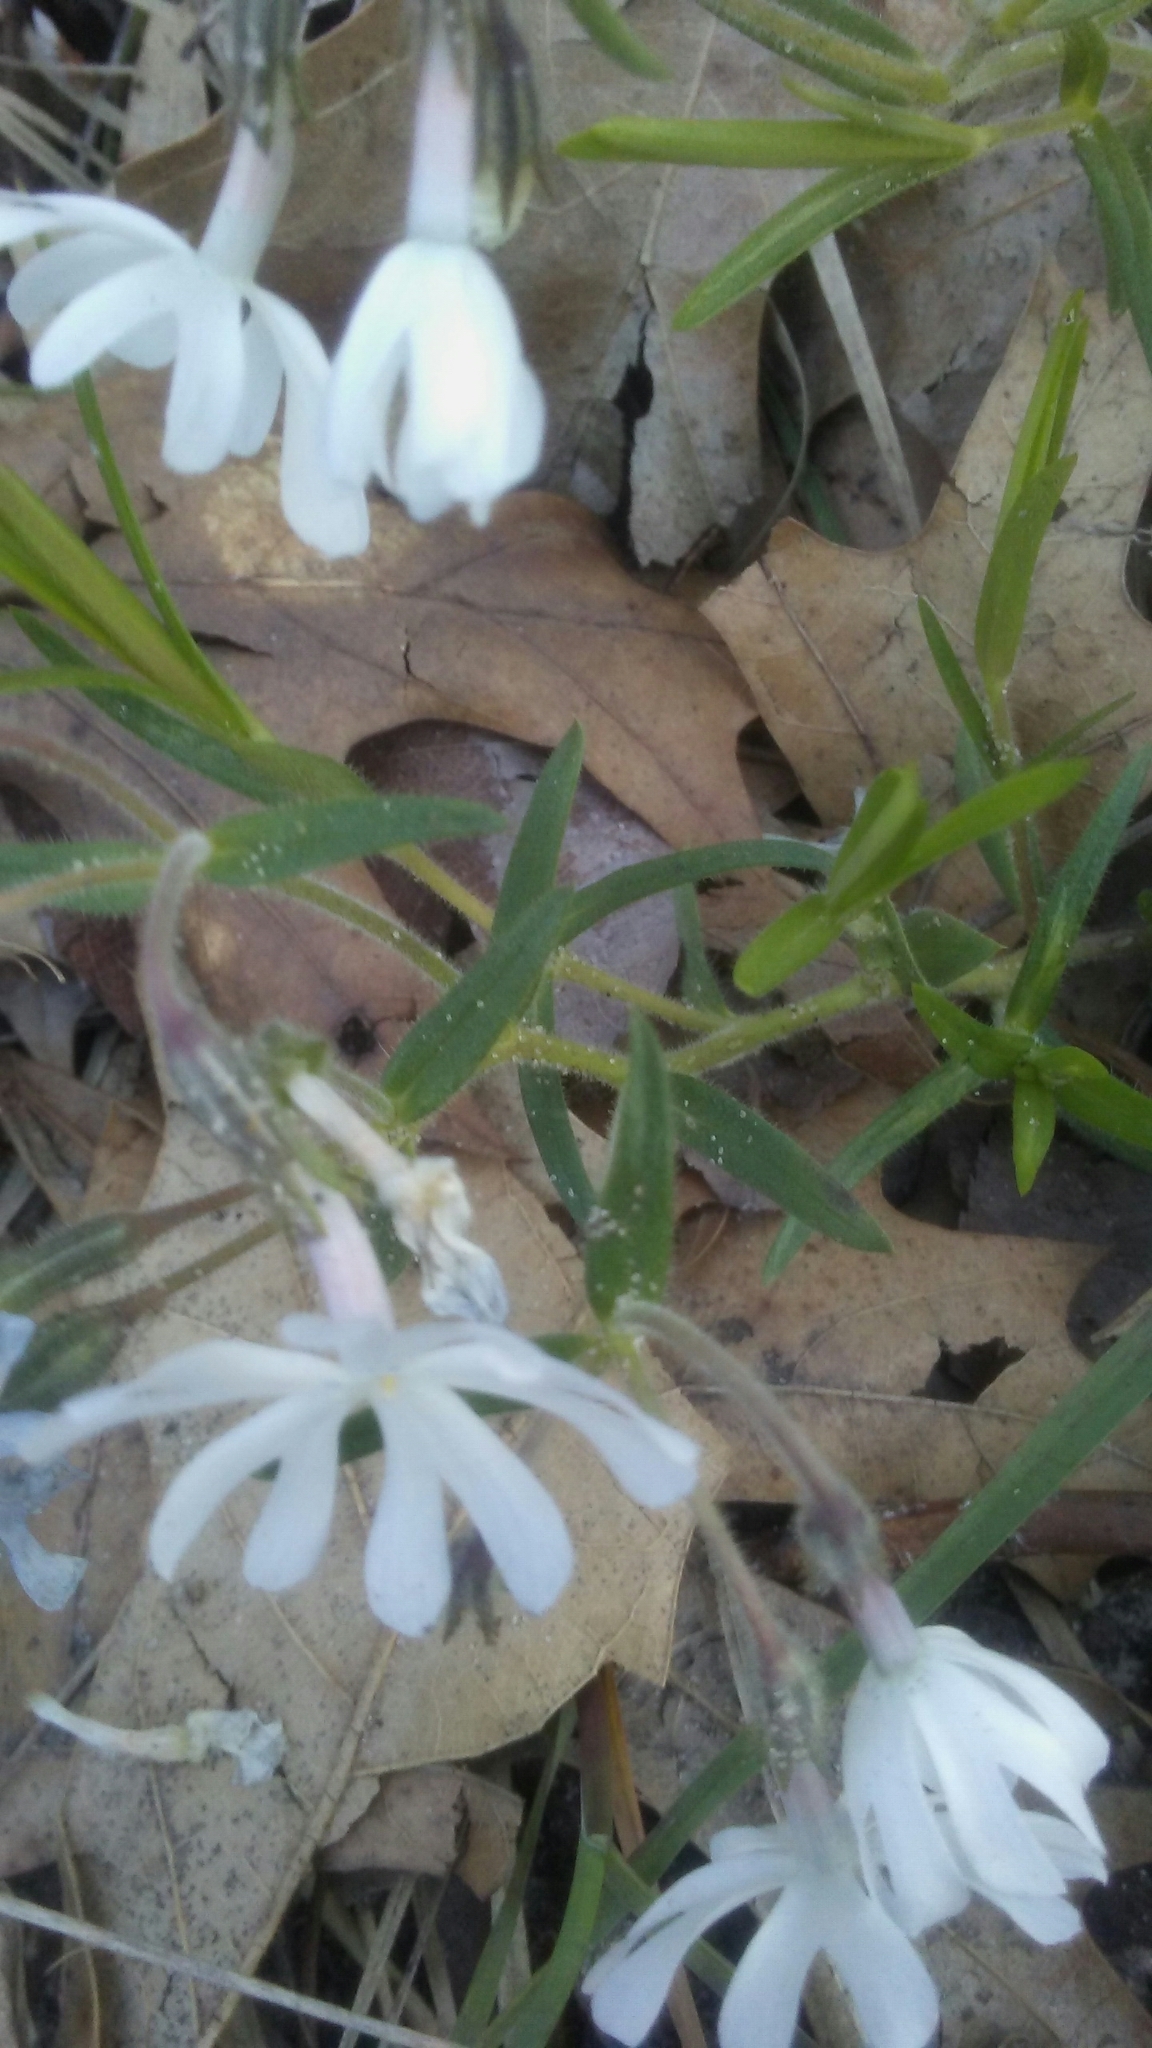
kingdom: Plantae
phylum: Tracheophyta
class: Magnoliopsida
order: Ericales
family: Polemoniaceae
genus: Phlox
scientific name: Phlox bifida
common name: Sand phlox
